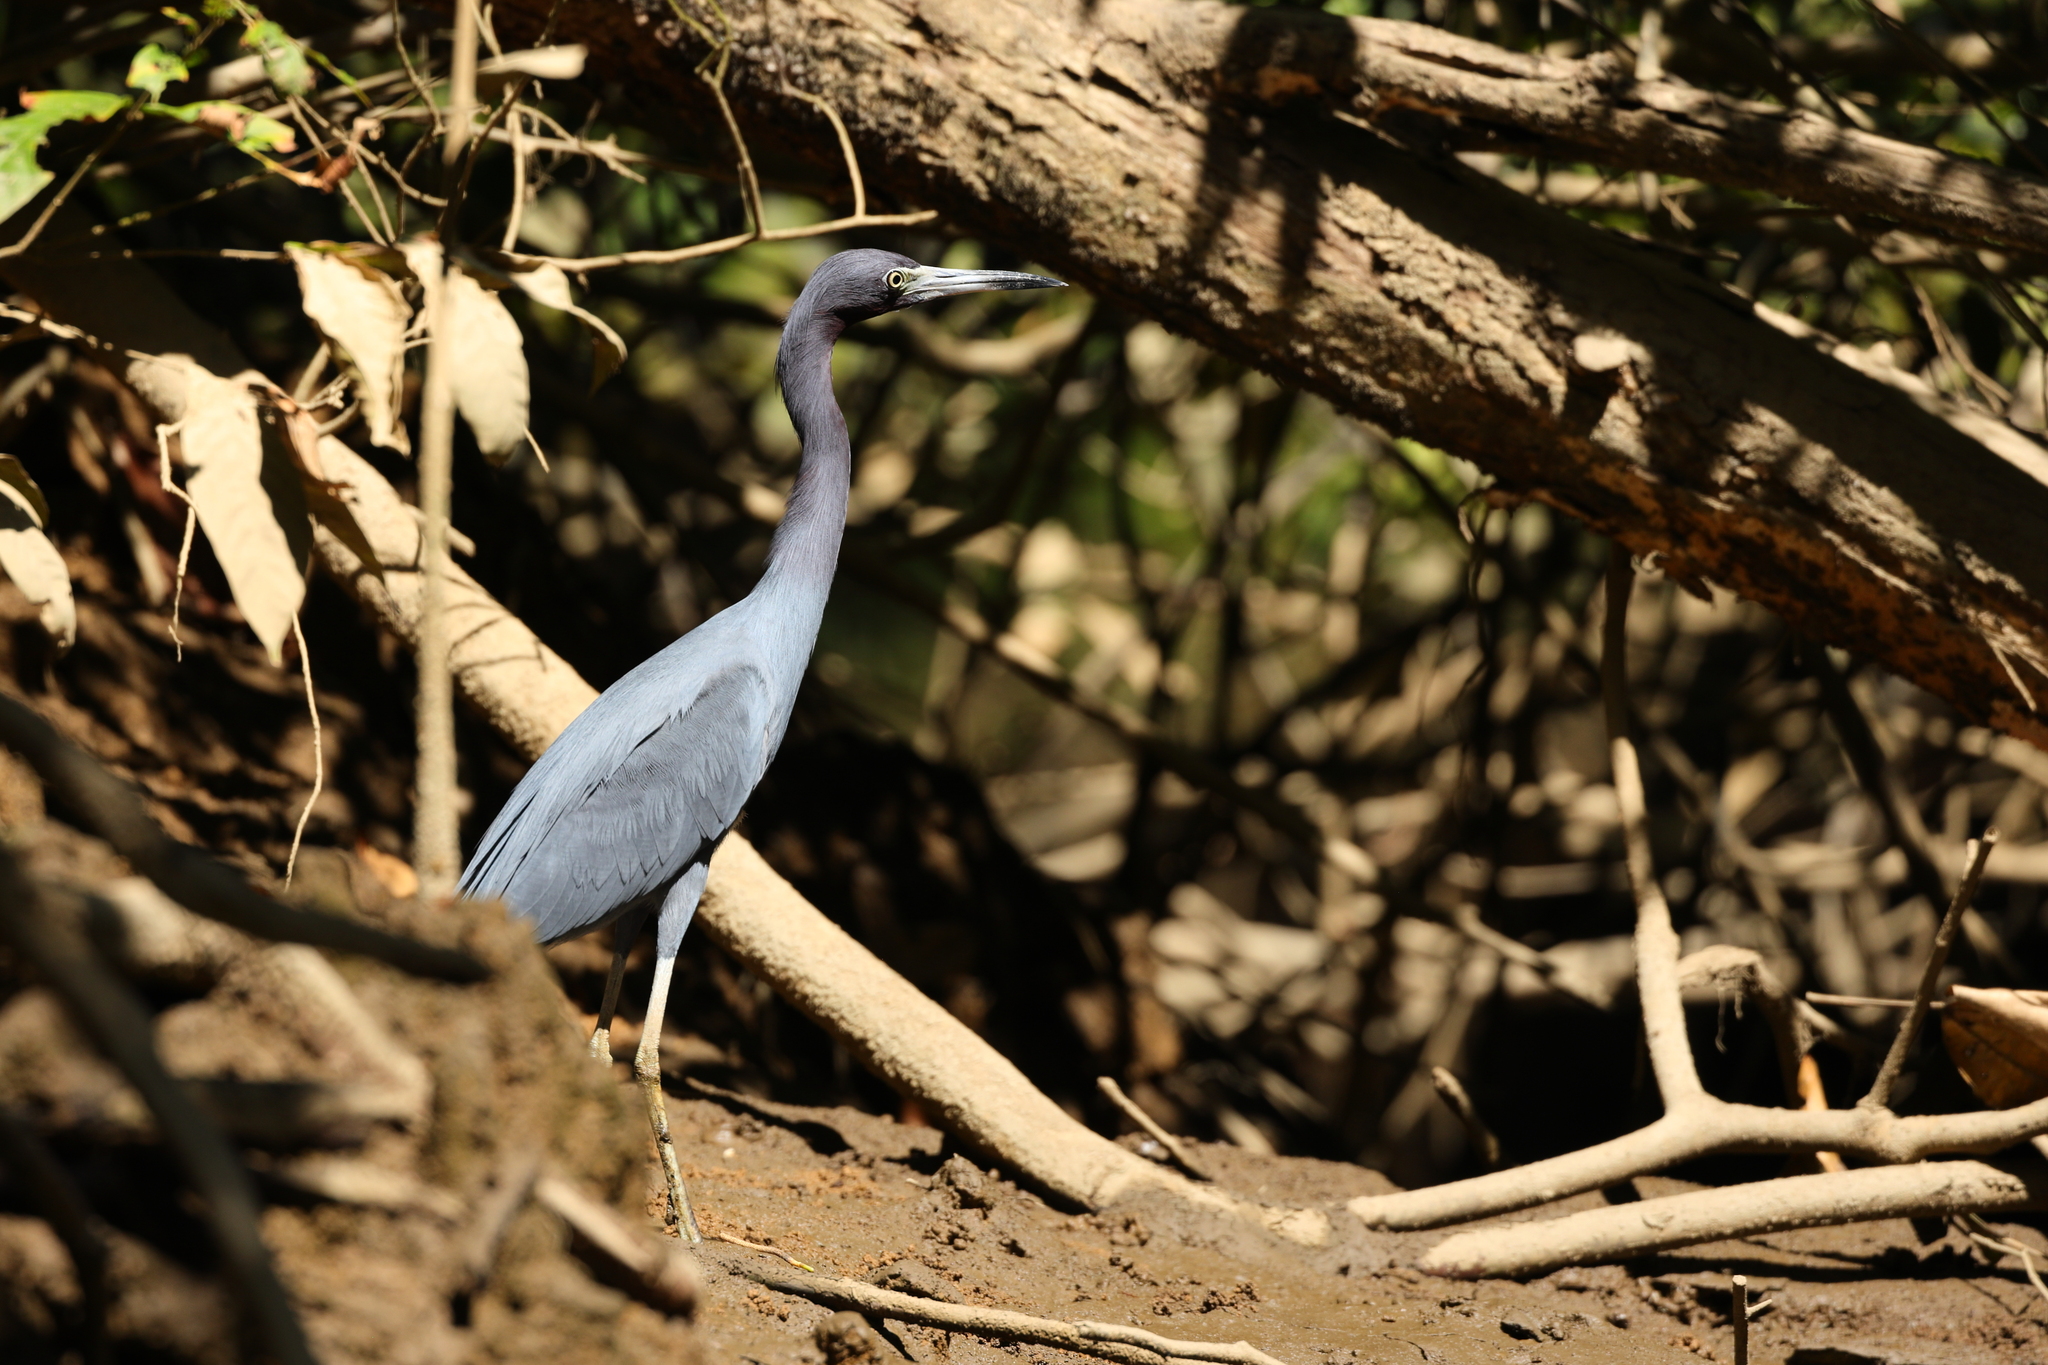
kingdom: Animalia
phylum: Chordata
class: Aves
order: Pelecaniformes
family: Ardeidae
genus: Egretta
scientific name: Egretta caerulea
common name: Little blue heron
